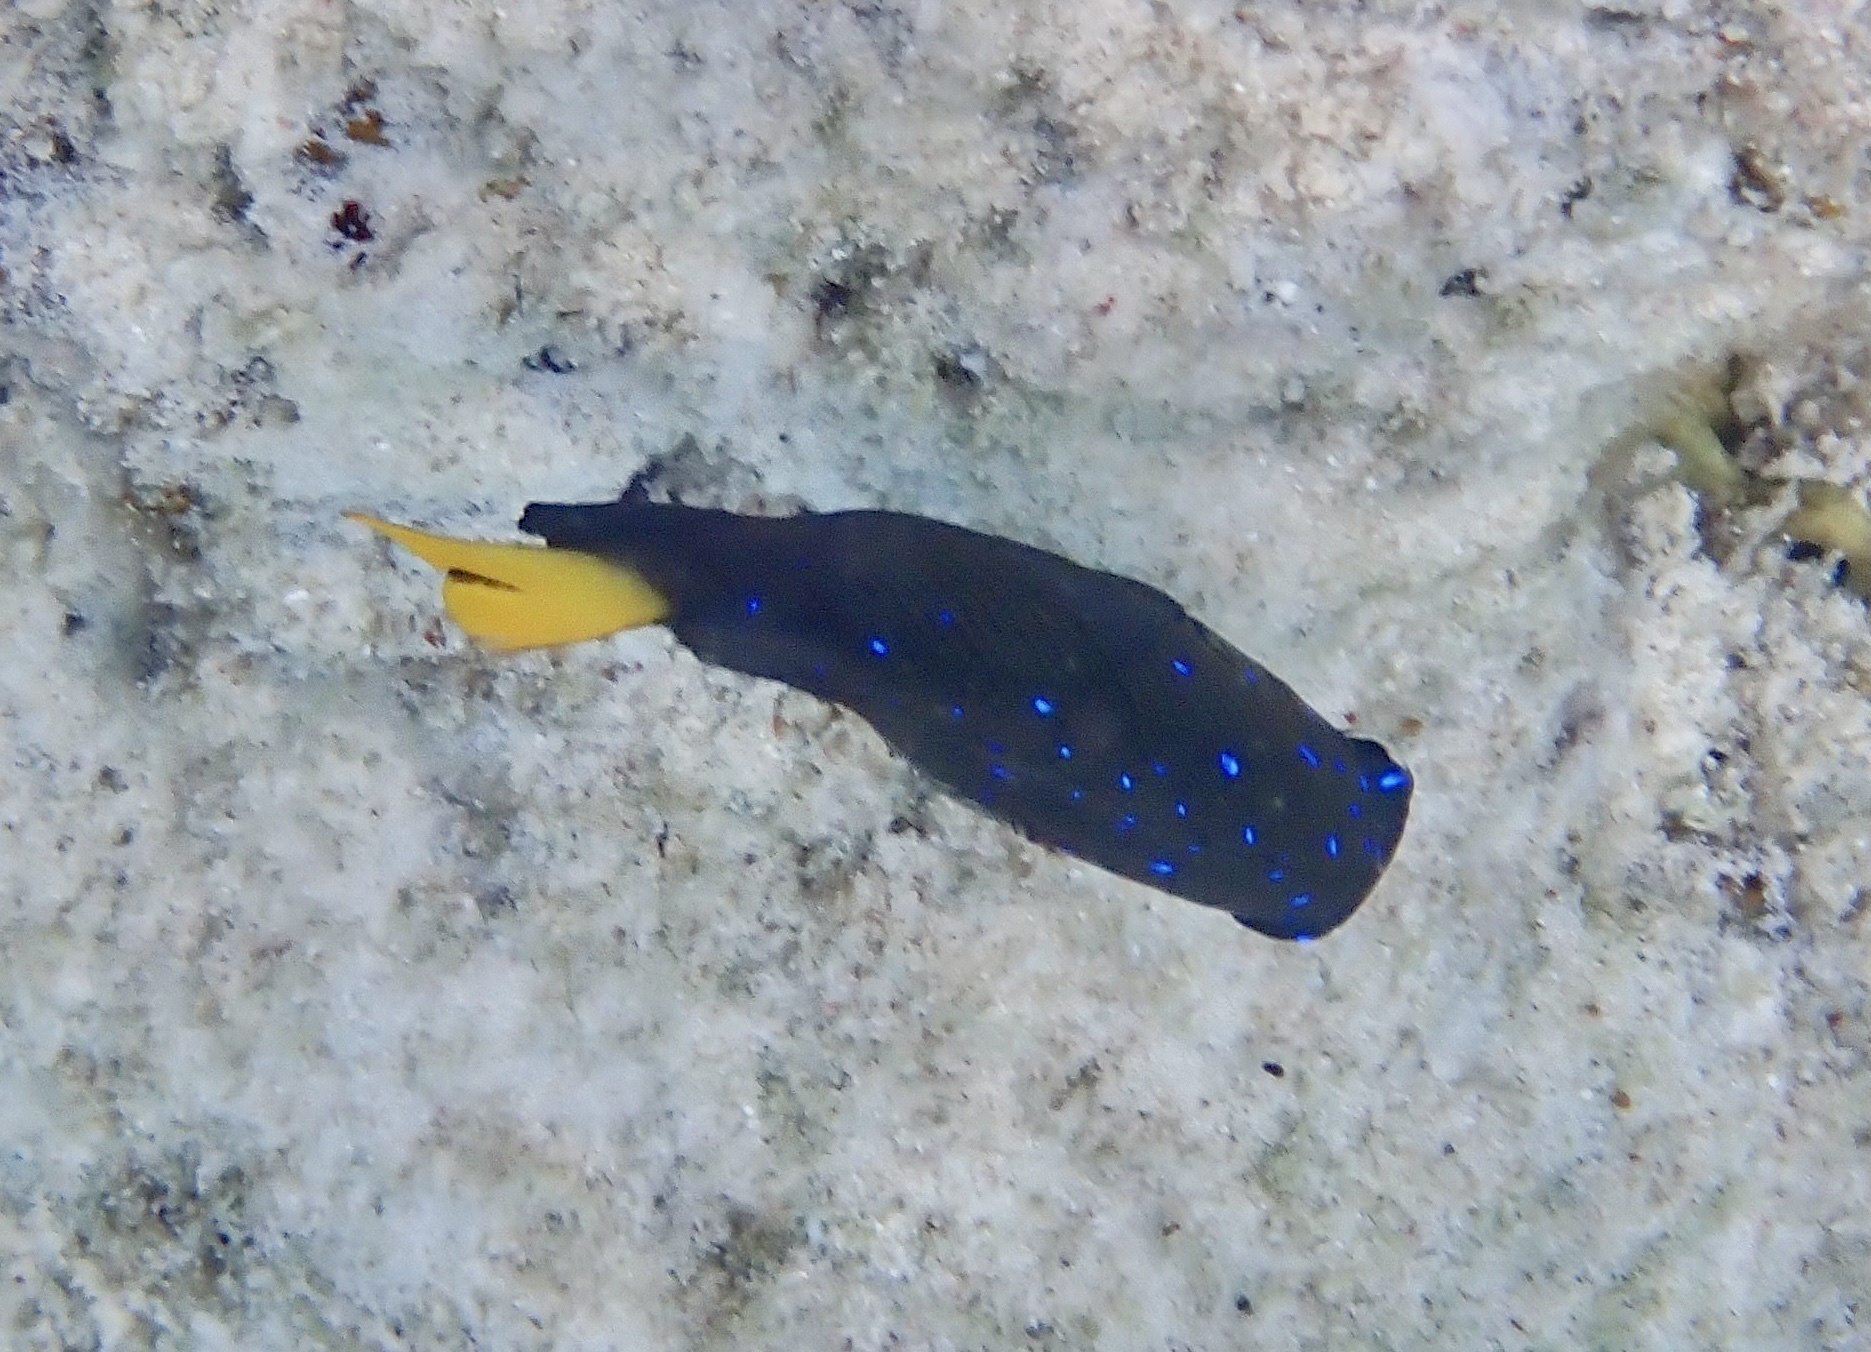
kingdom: Animalia
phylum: Chordata
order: Perciformes
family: Pomacentridae
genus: Microspathodon
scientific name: Microspathodon chrysurus
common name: Yellowtail damselfish
